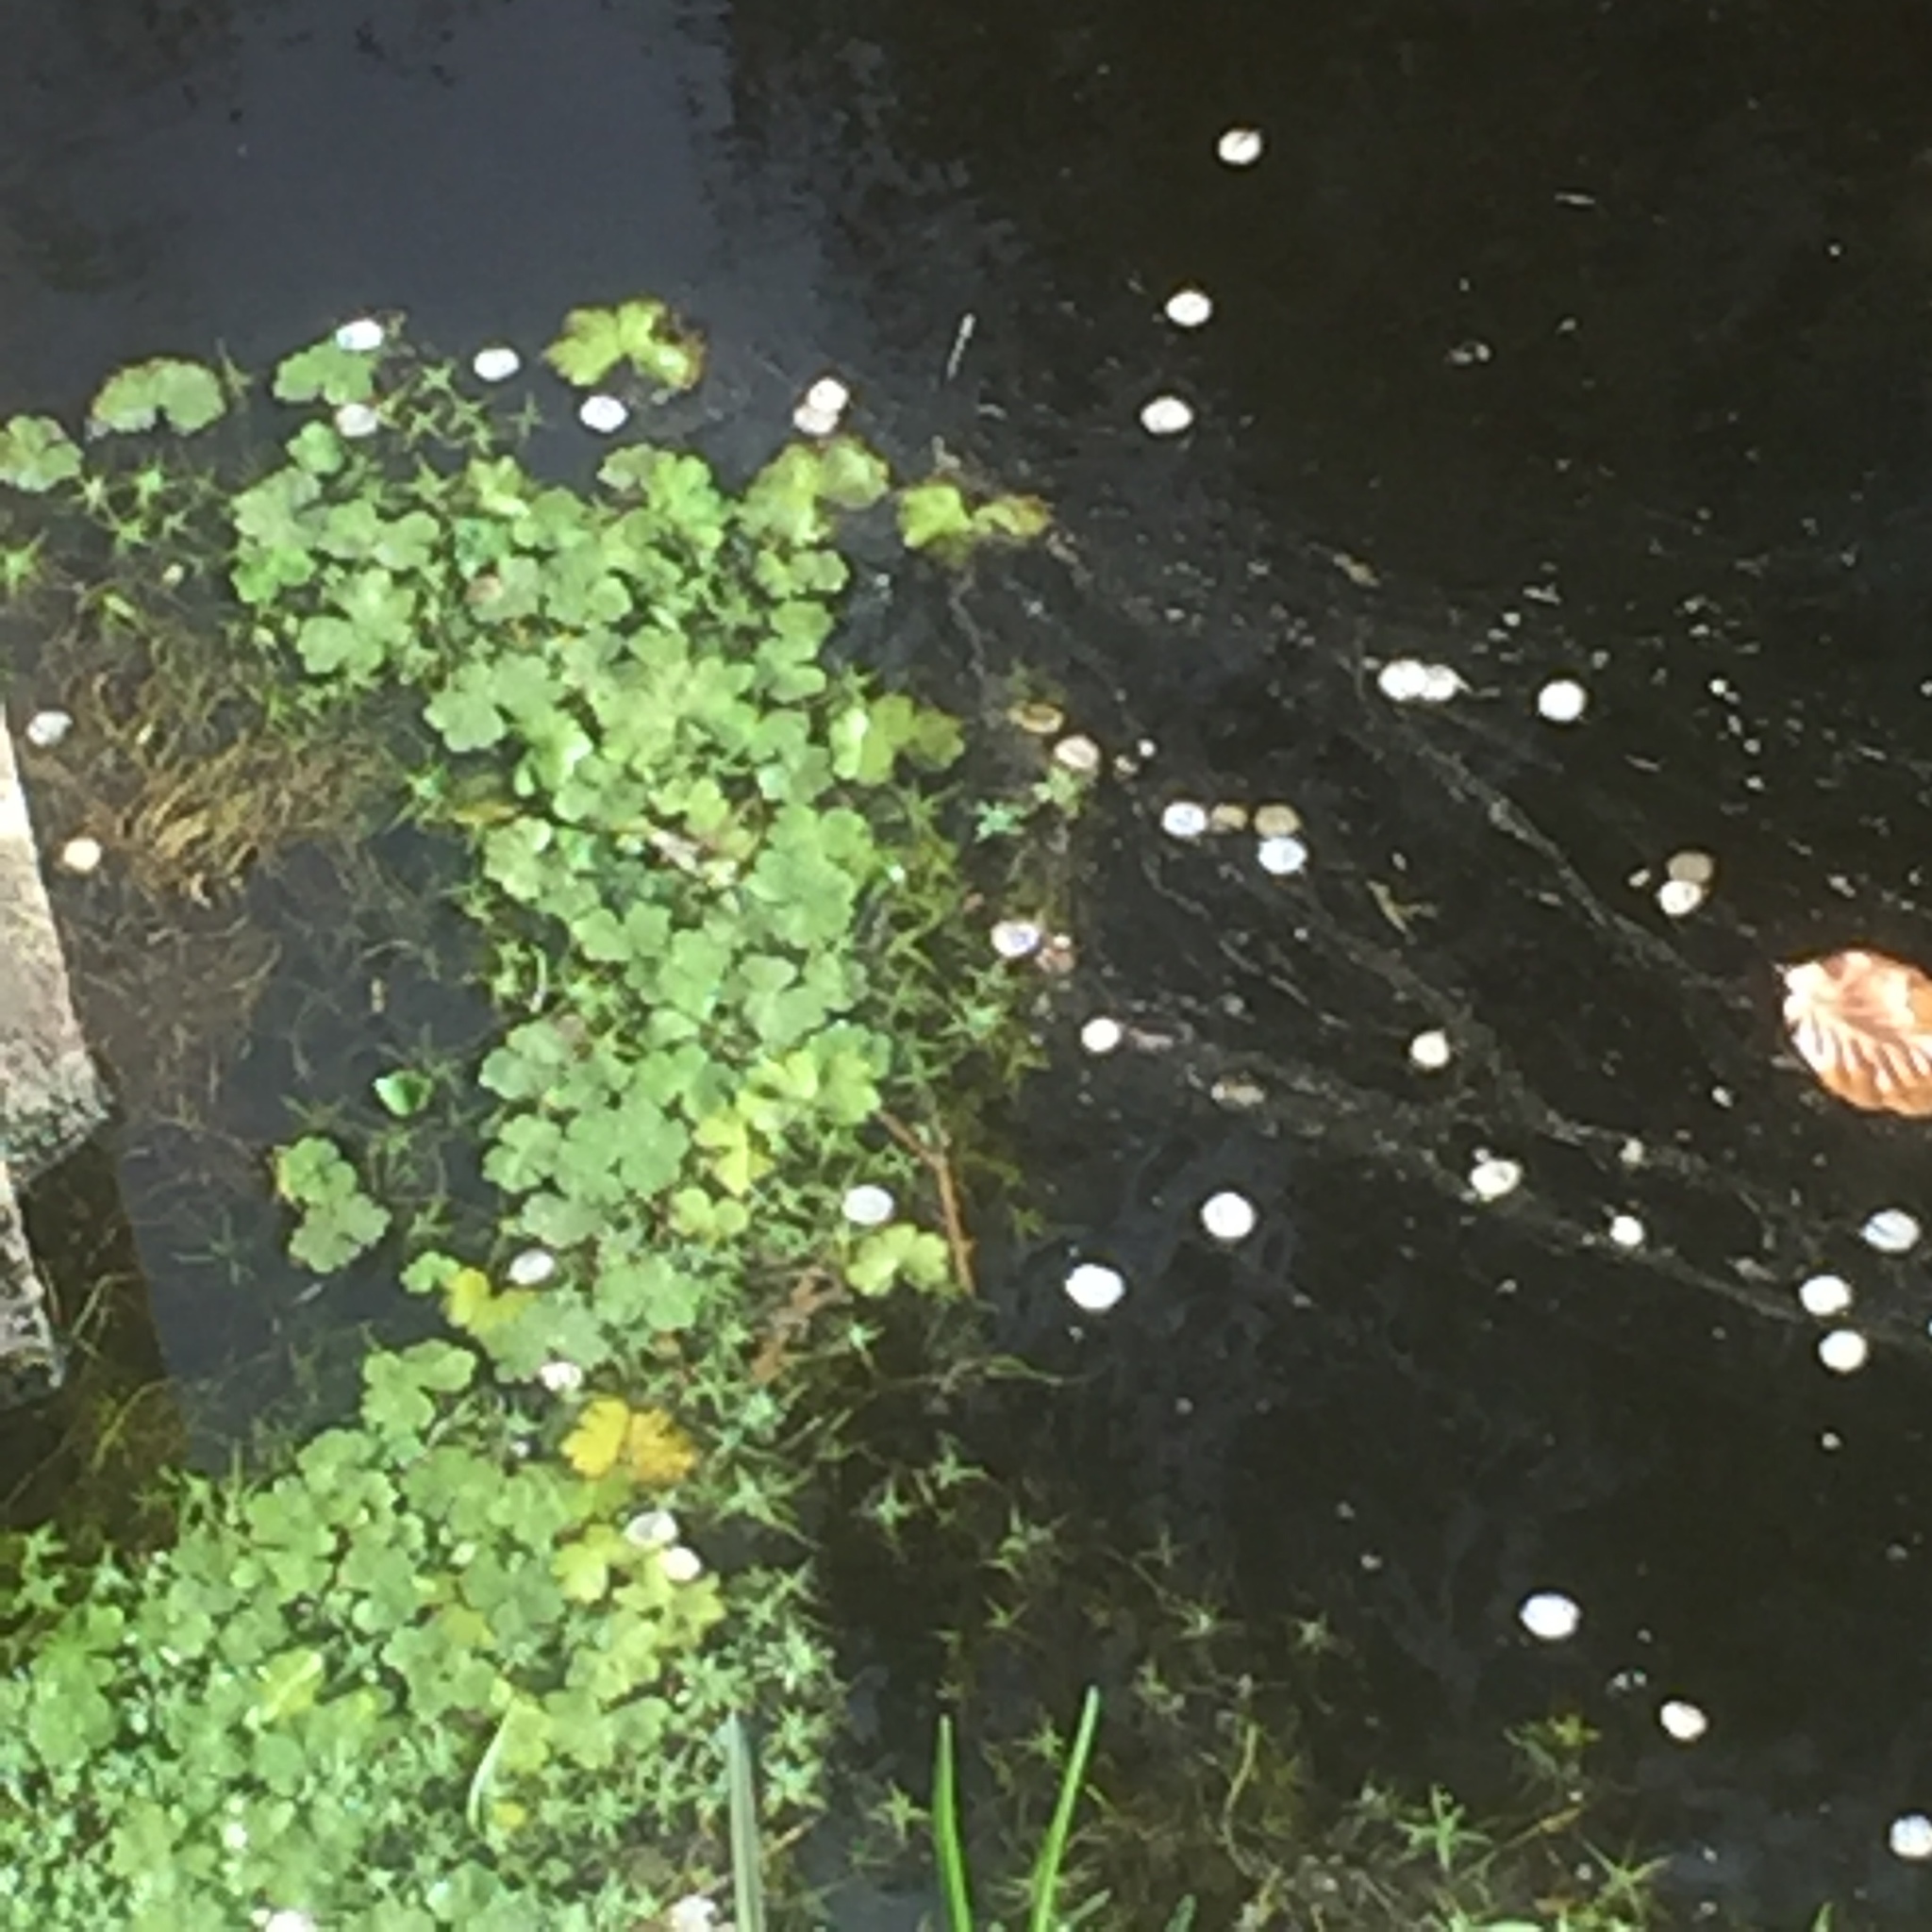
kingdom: Plantae
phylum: Tracheophyta
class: Magnoliopsida
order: Apiales
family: Araliaceae
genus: Hydrocotyle
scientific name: Hydrocotyle ranunculoides
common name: Floating pennywort
